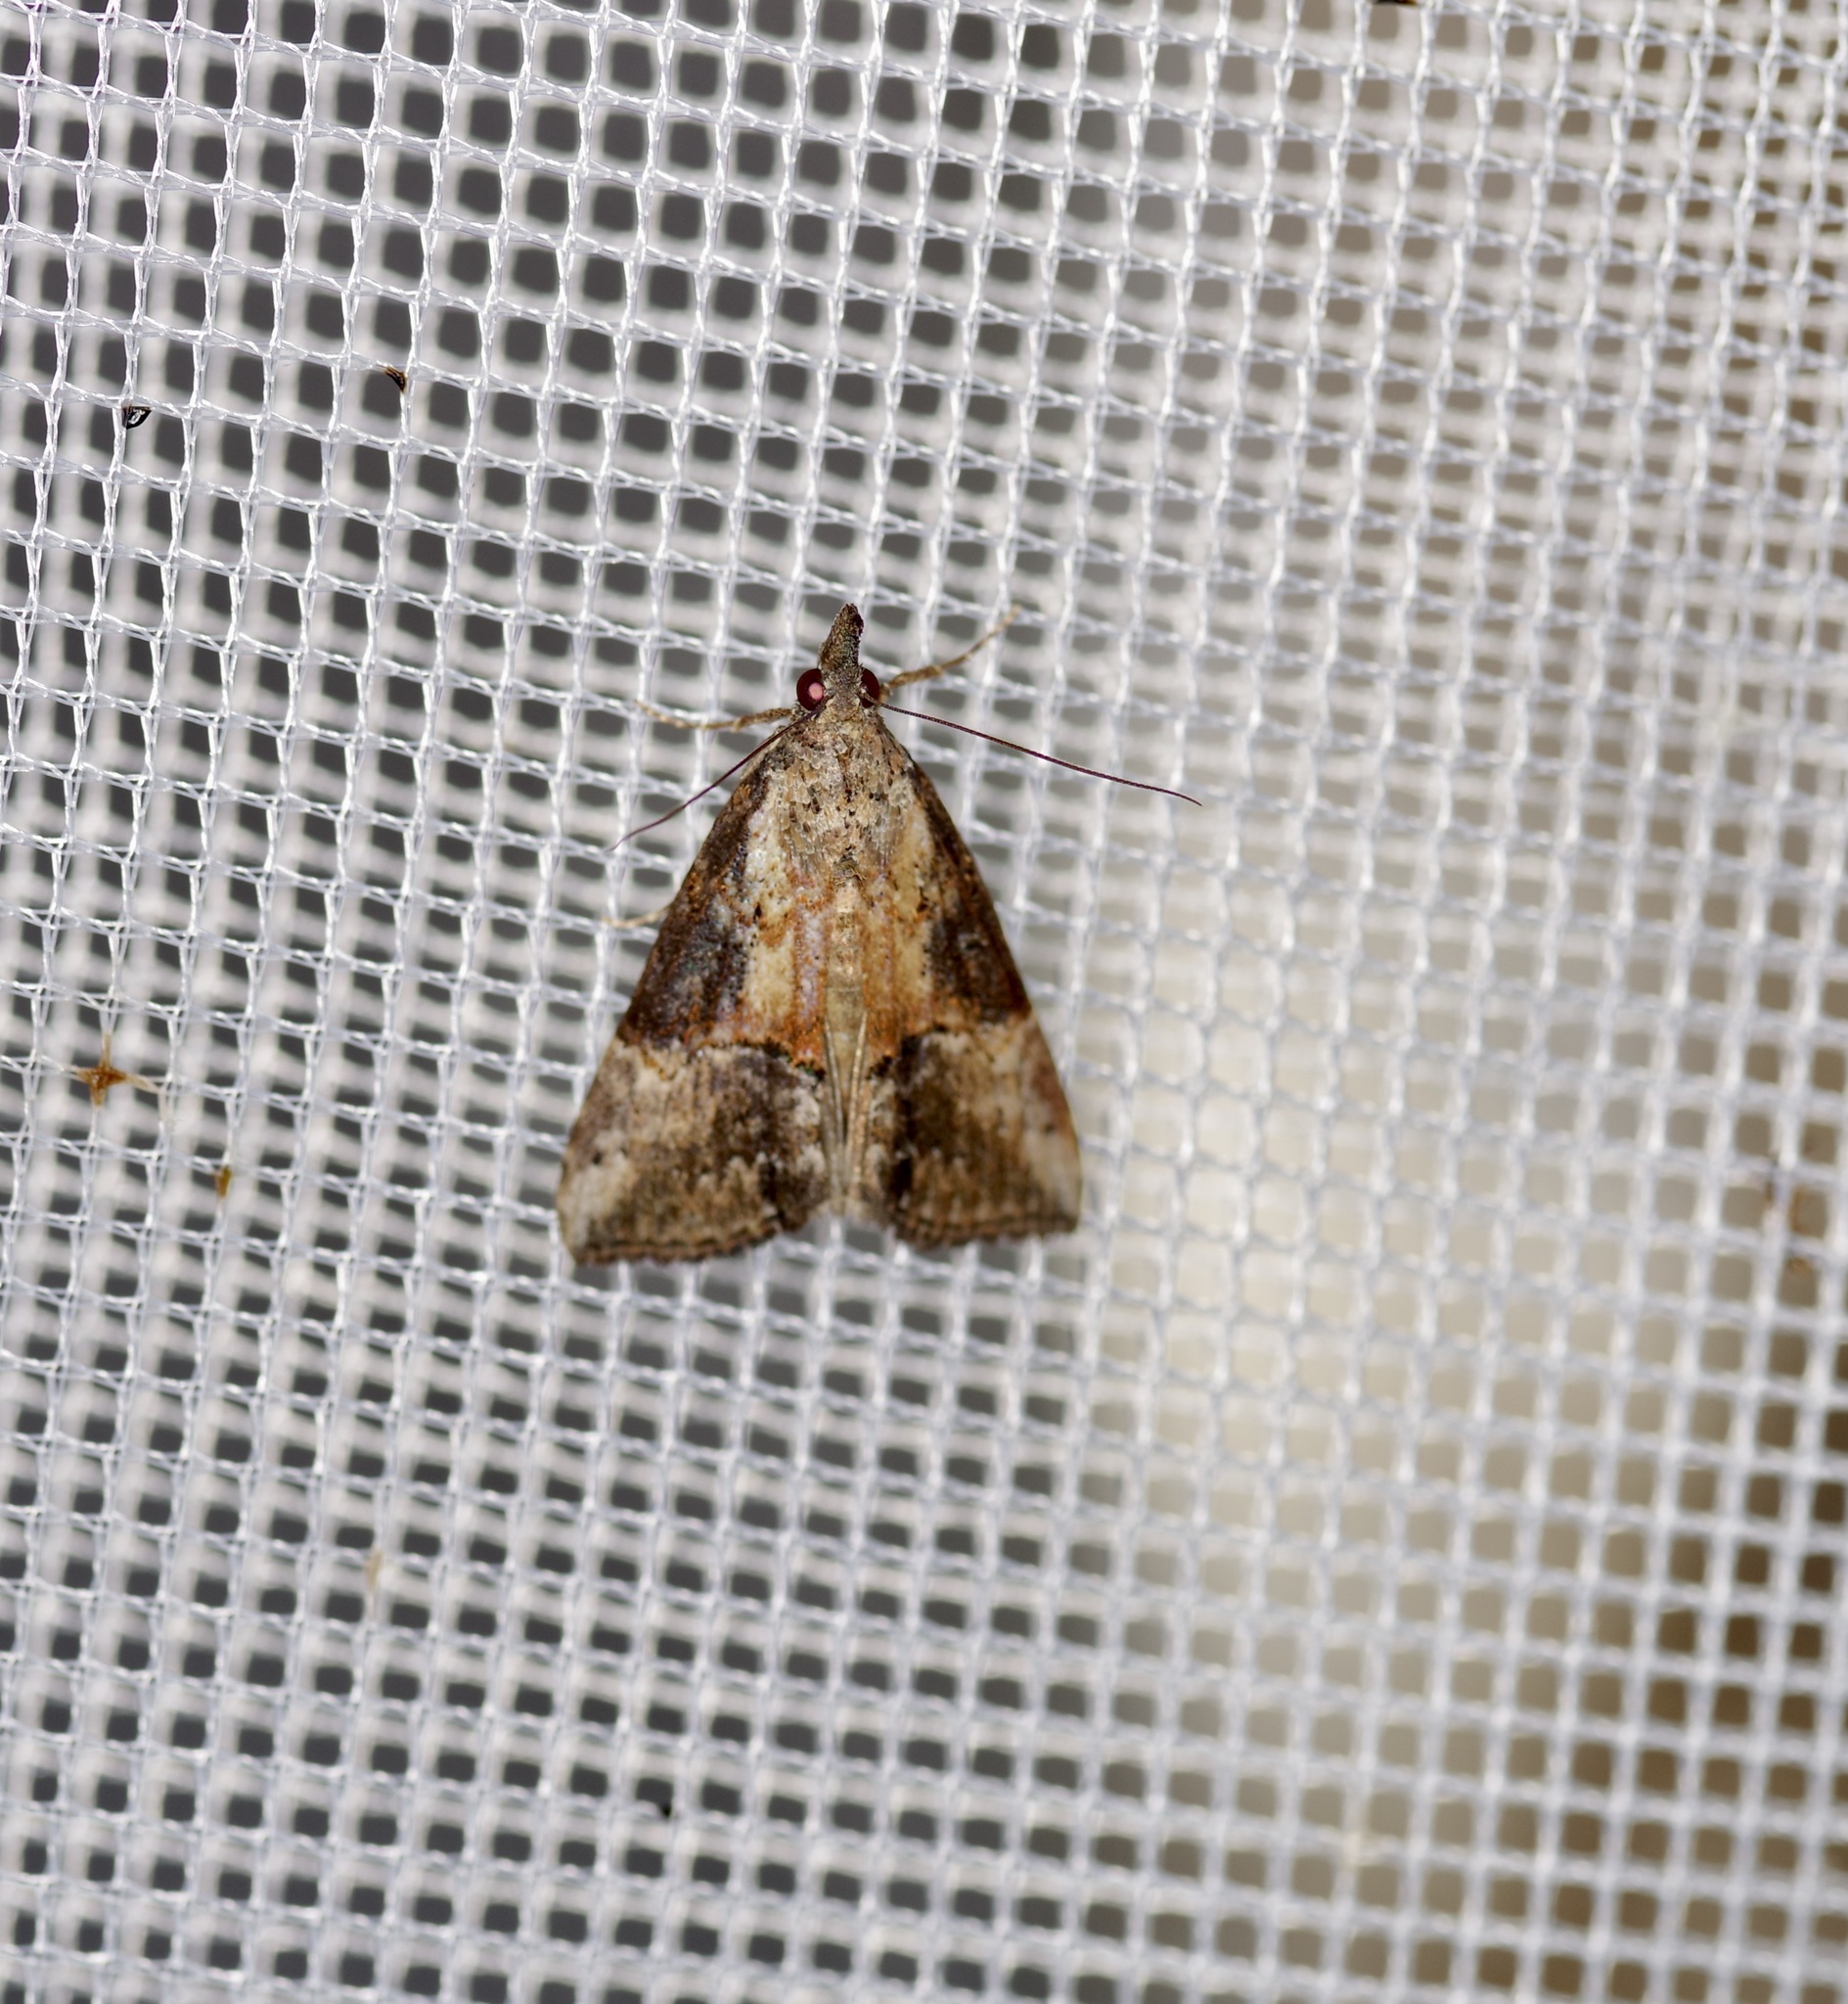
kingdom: Animalia
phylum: Arthropoda
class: Insecta
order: Lepidoptera
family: Erebidae
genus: Hypena
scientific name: Hypena scabra
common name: Green cloverworm
